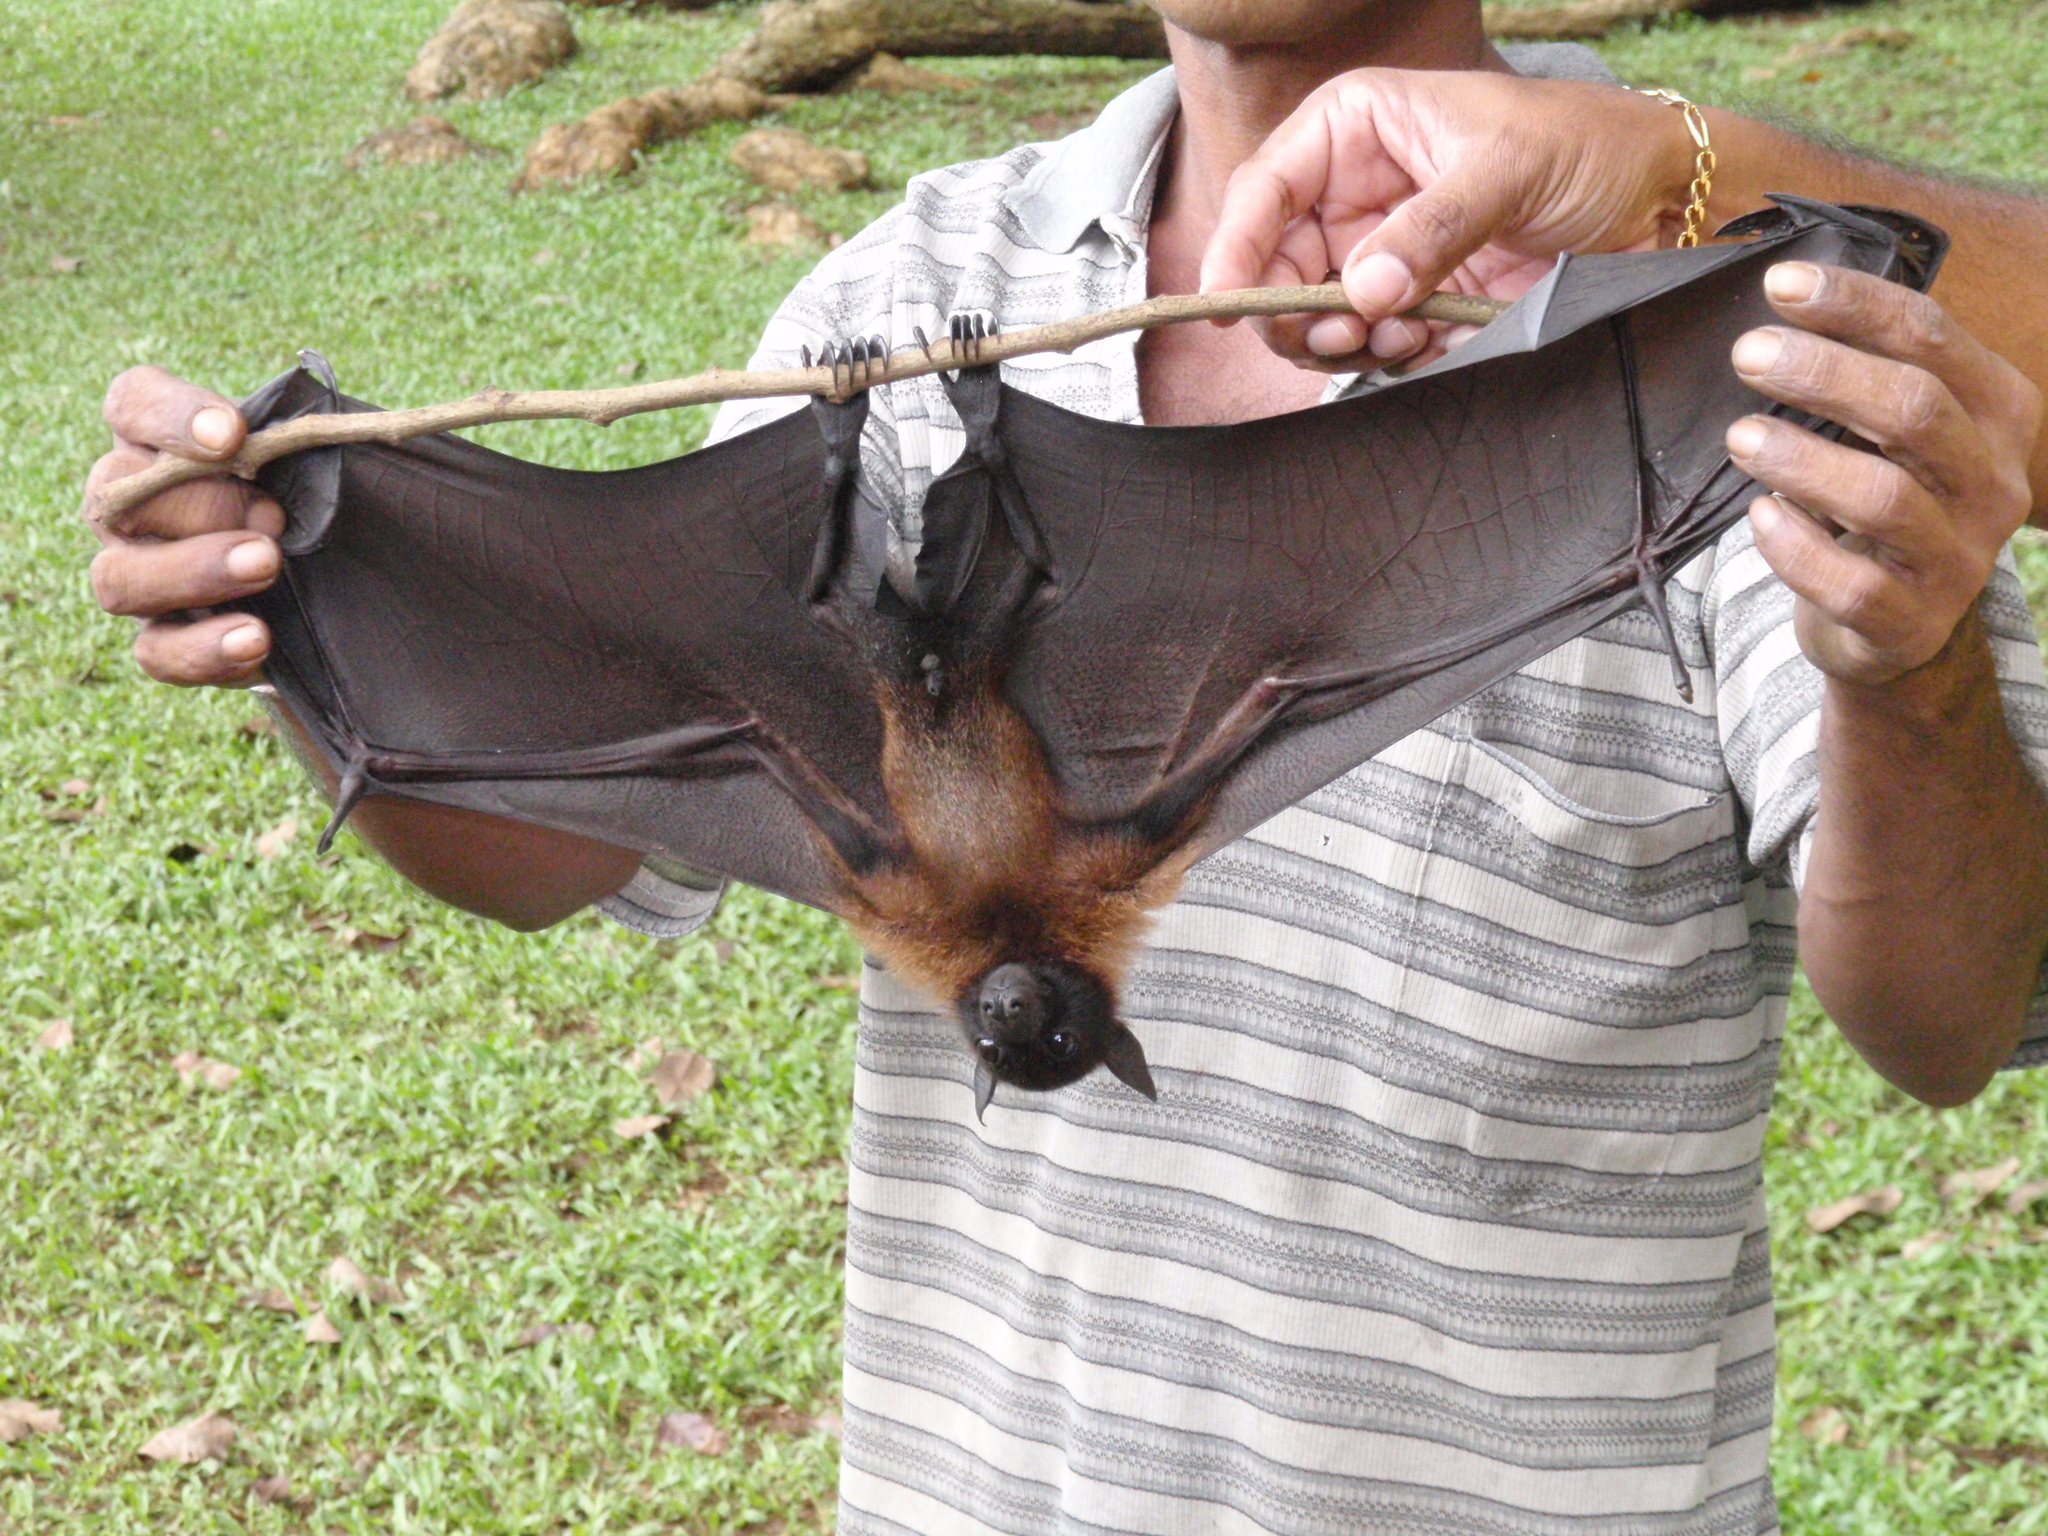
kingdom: Animalia
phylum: Chordata
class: Mammalia
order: Chiroptera
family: Pteropodidae
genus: Pteropus
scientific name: Pteropus vampyrus
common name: Large flying fox
